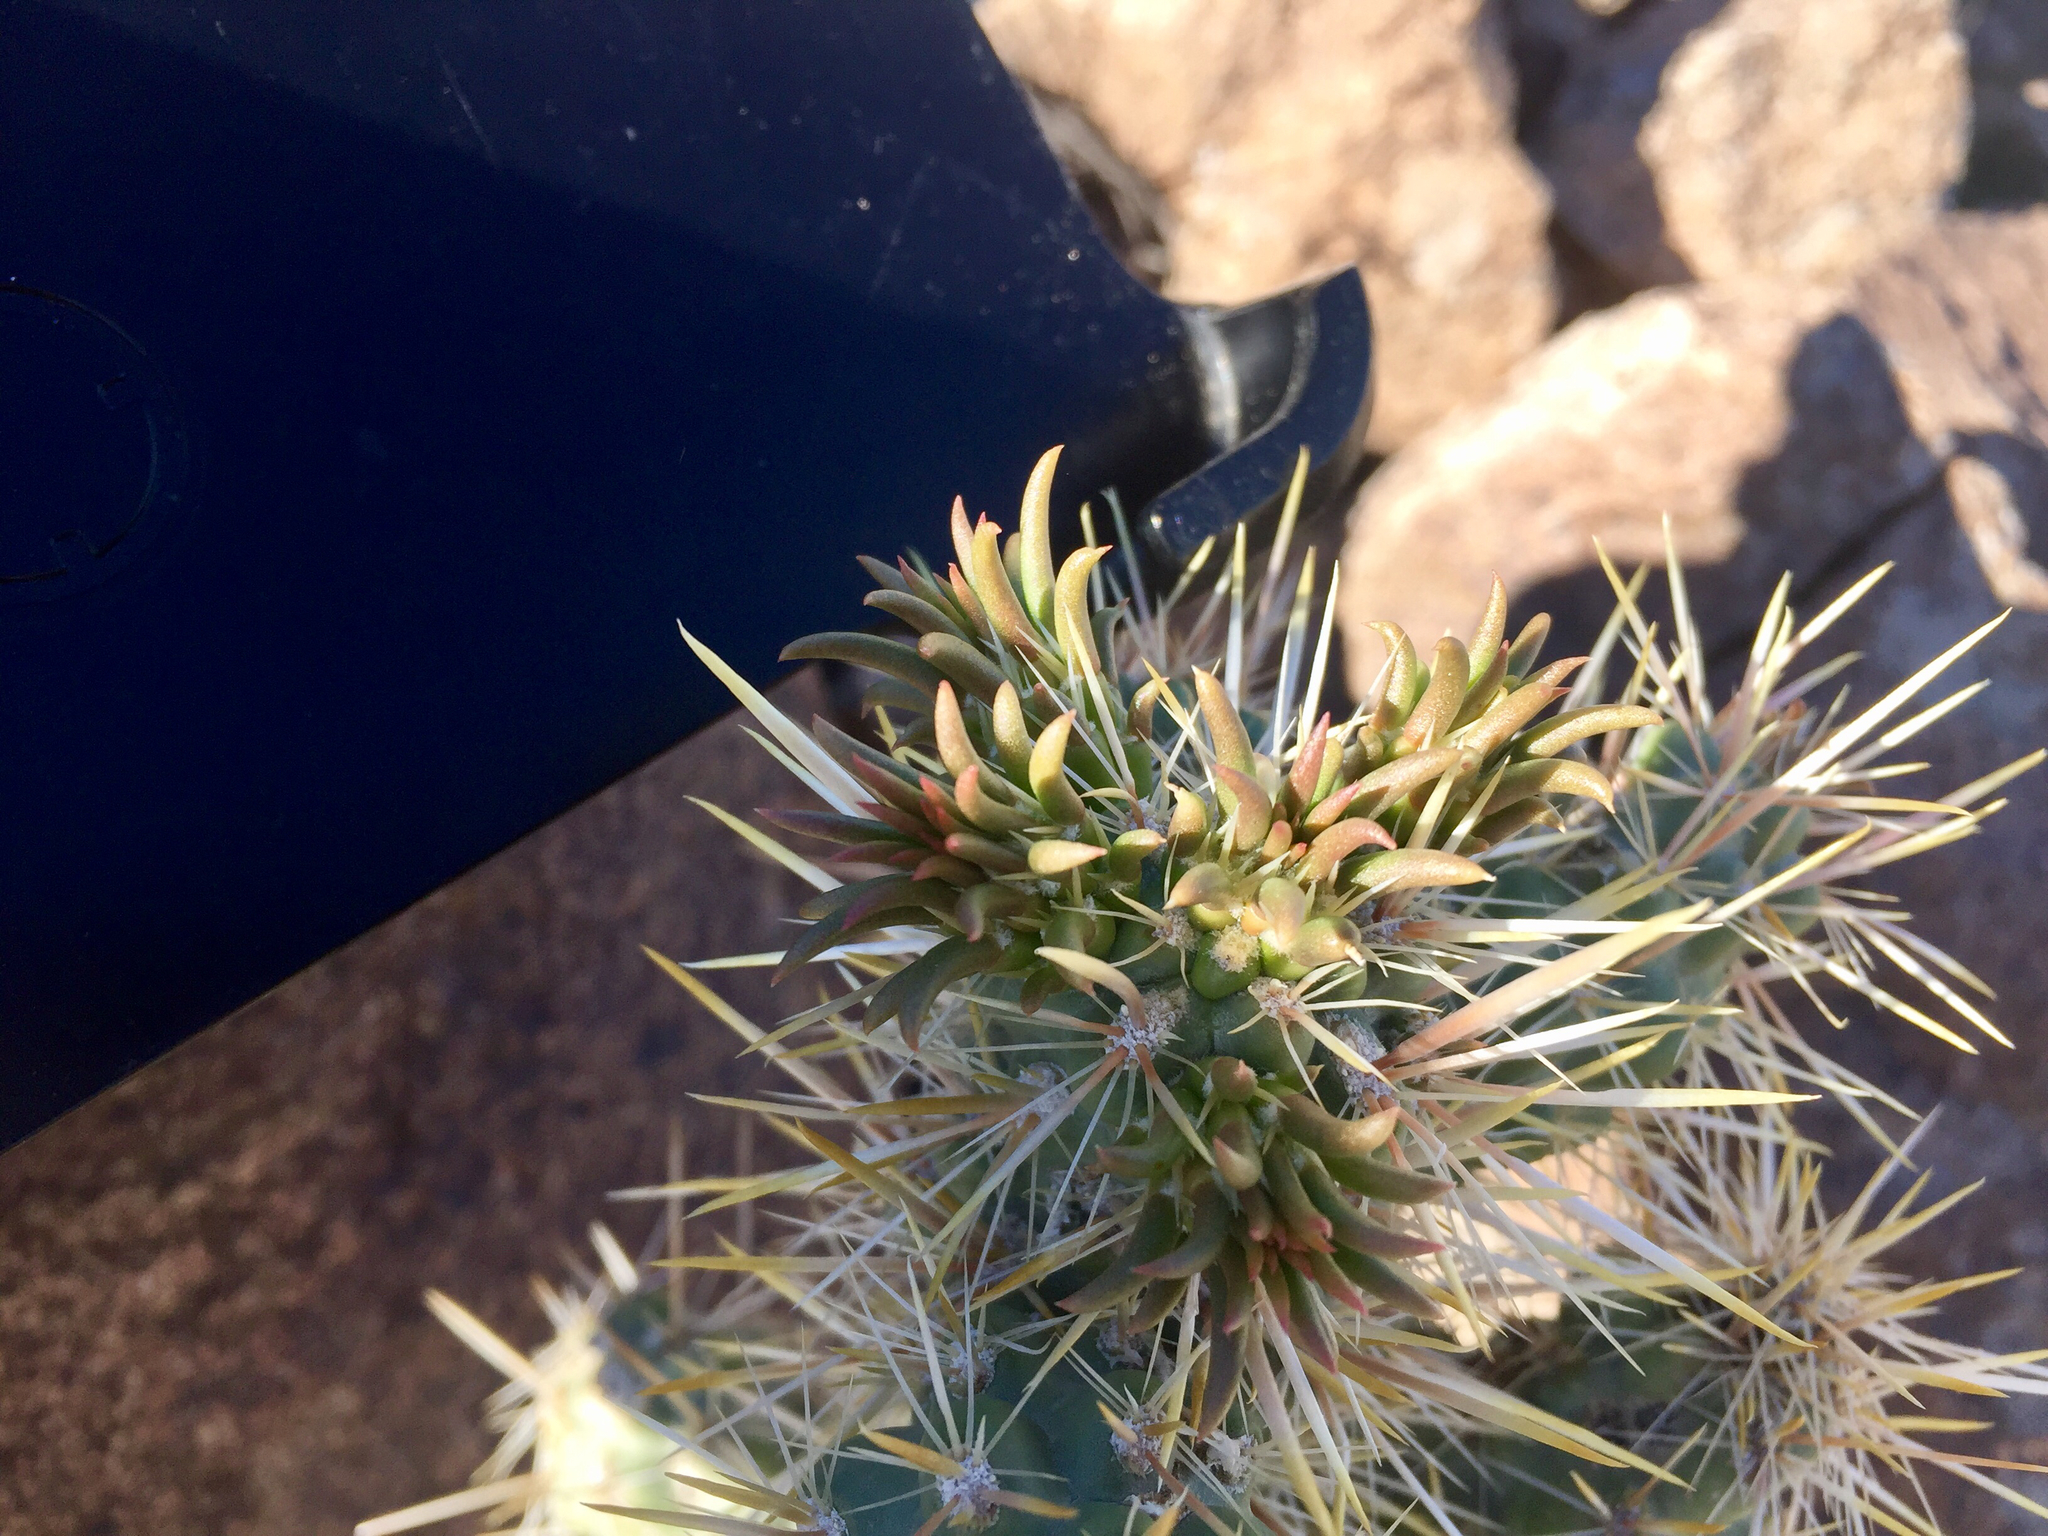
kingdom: Plantae
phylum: Tracheophyta
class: Magnoliopsida
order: Caryophyllales
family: Cactaceae
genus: Cylindropuntia
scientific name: Cylindropuntia echinocarpa
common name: Ground cholla
